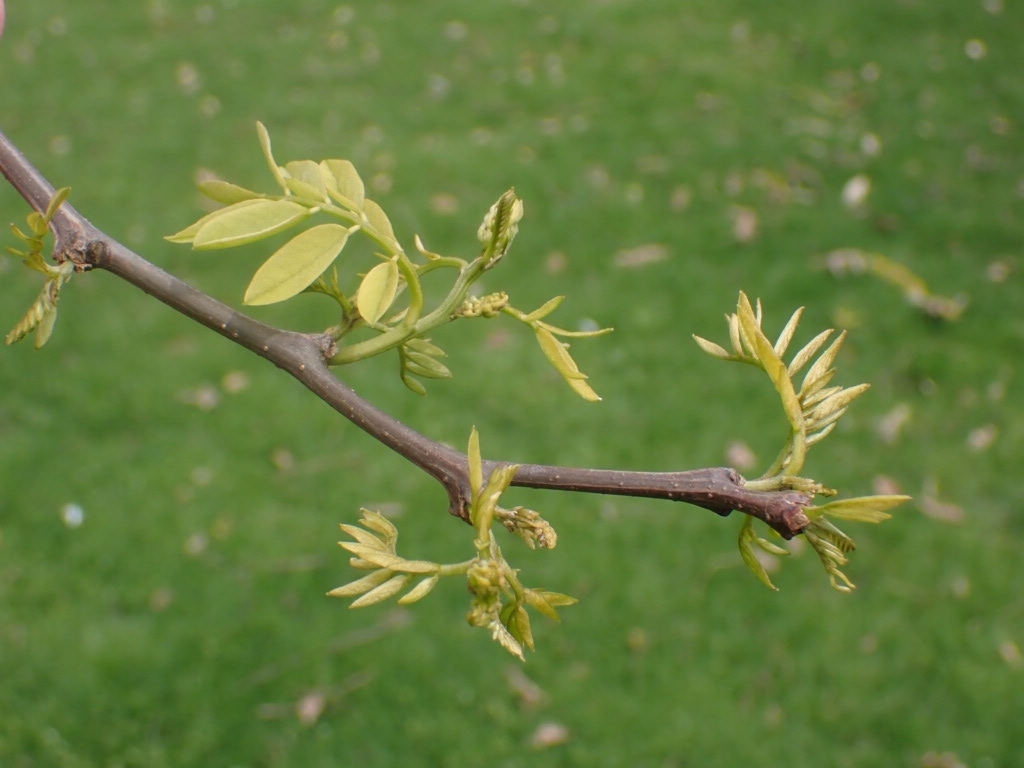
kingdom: Plantae
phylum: Tracheophyta
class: Magnoliopsida
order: Fabales
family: Fabaceae
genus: Robinia
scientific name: Robinia pseudoacacia
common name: Black locust
